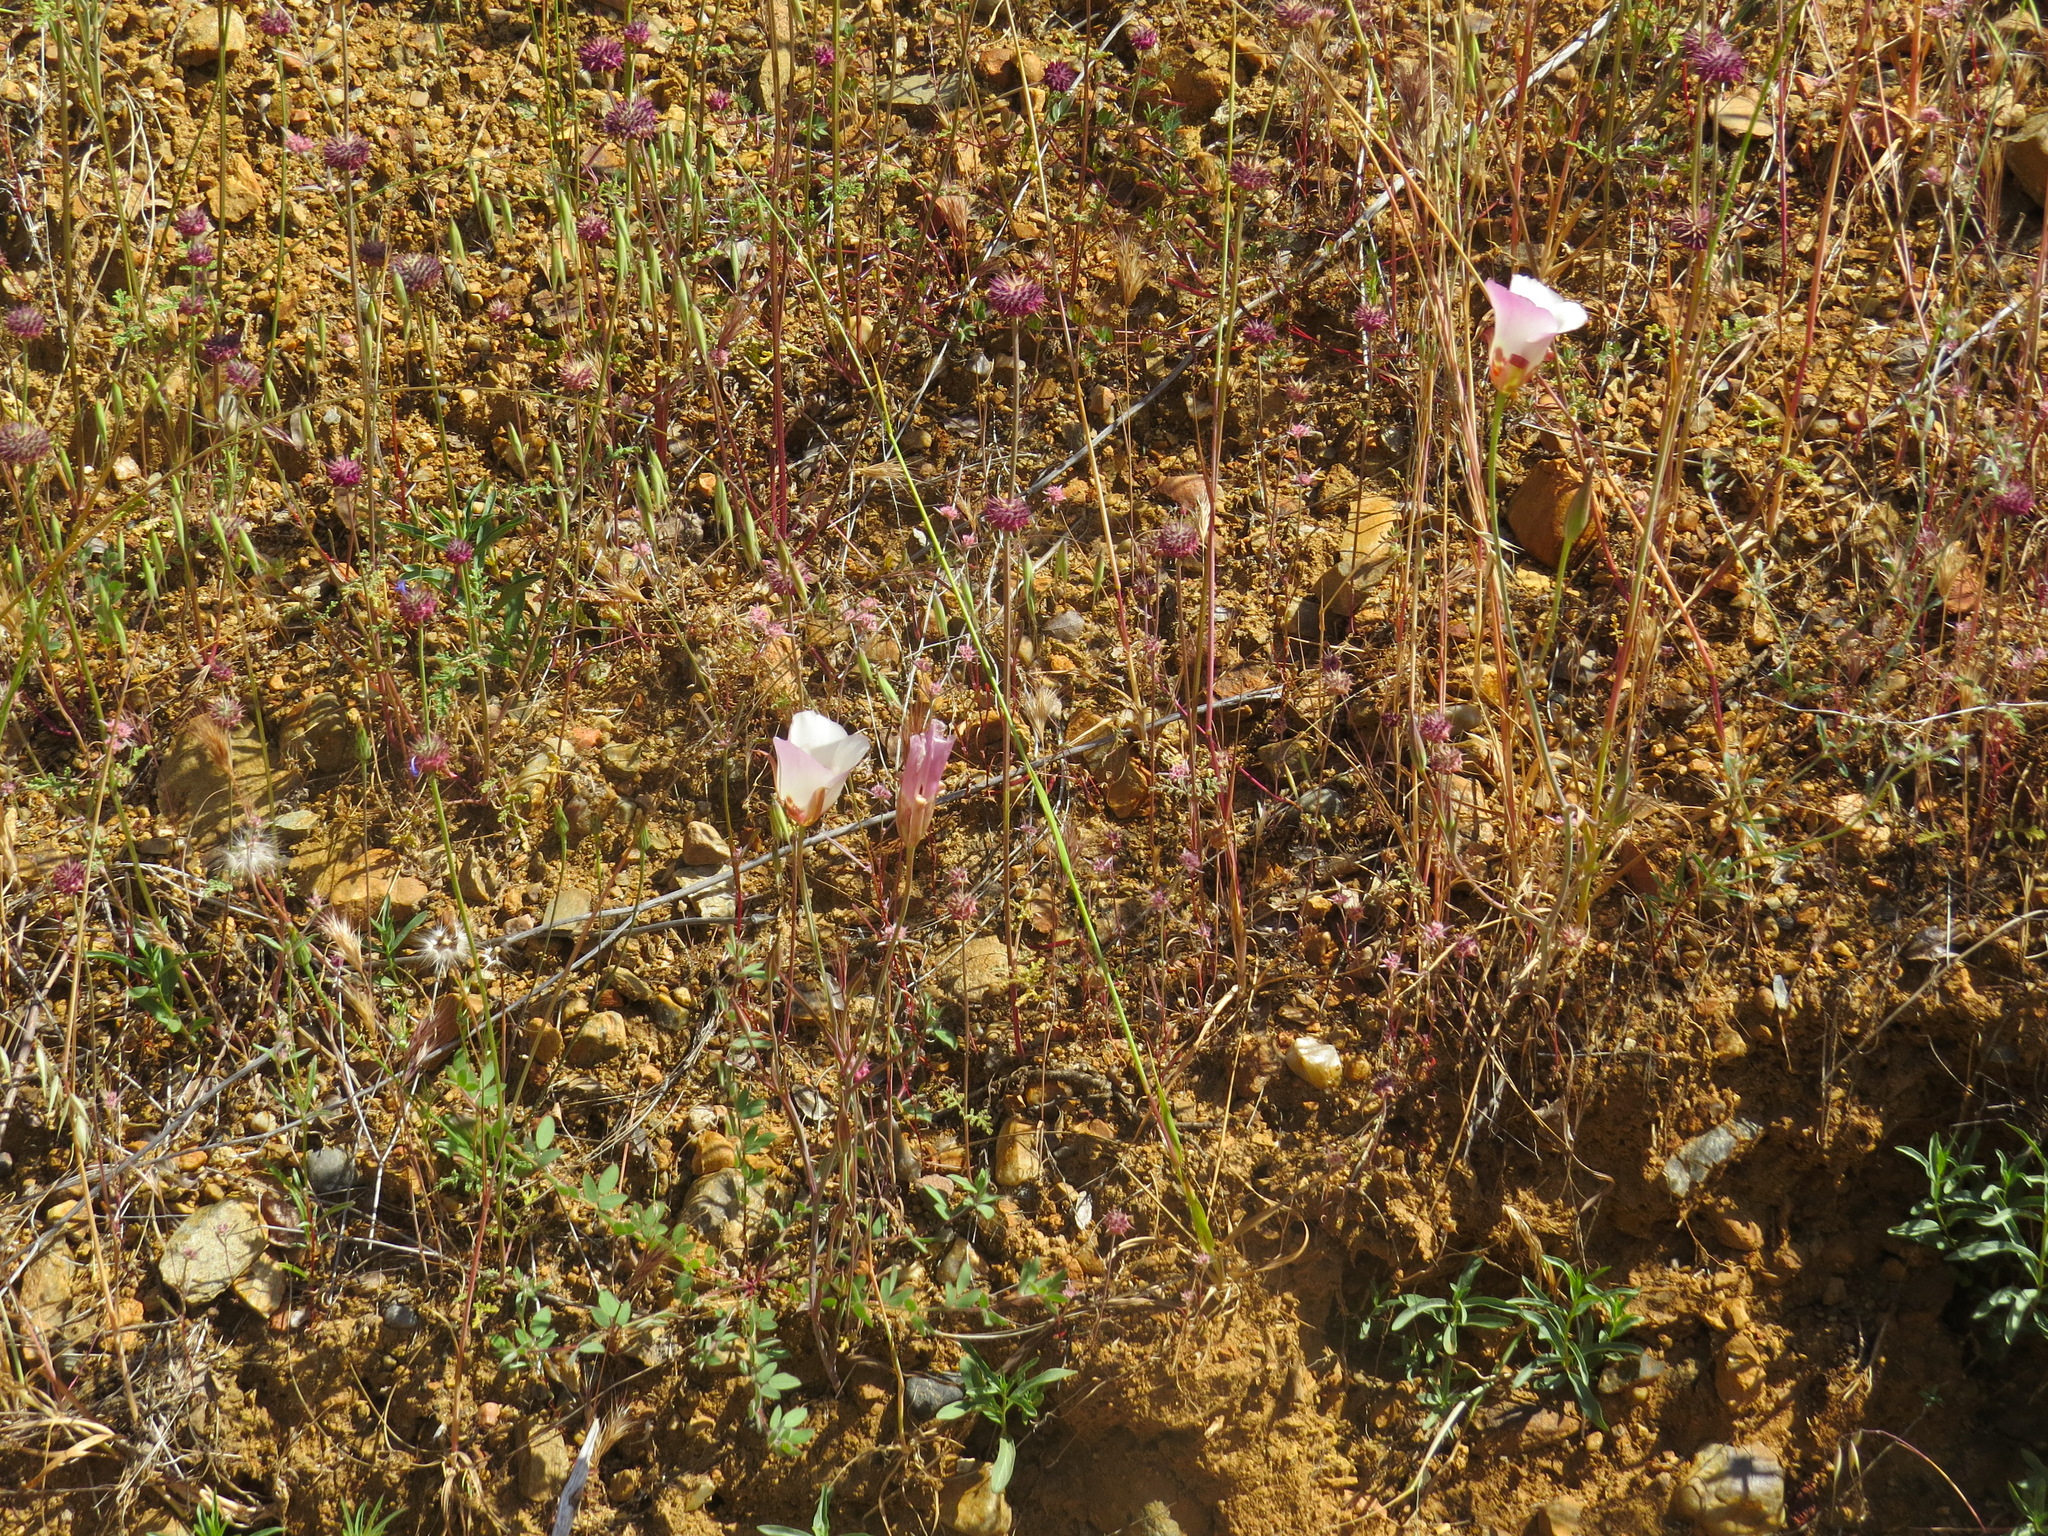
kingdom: Plantae
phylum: Tracheophyta
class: Liliopsida
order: Liliales
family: Liliaceae
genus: Calochortus
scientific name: Calochortus simulans
